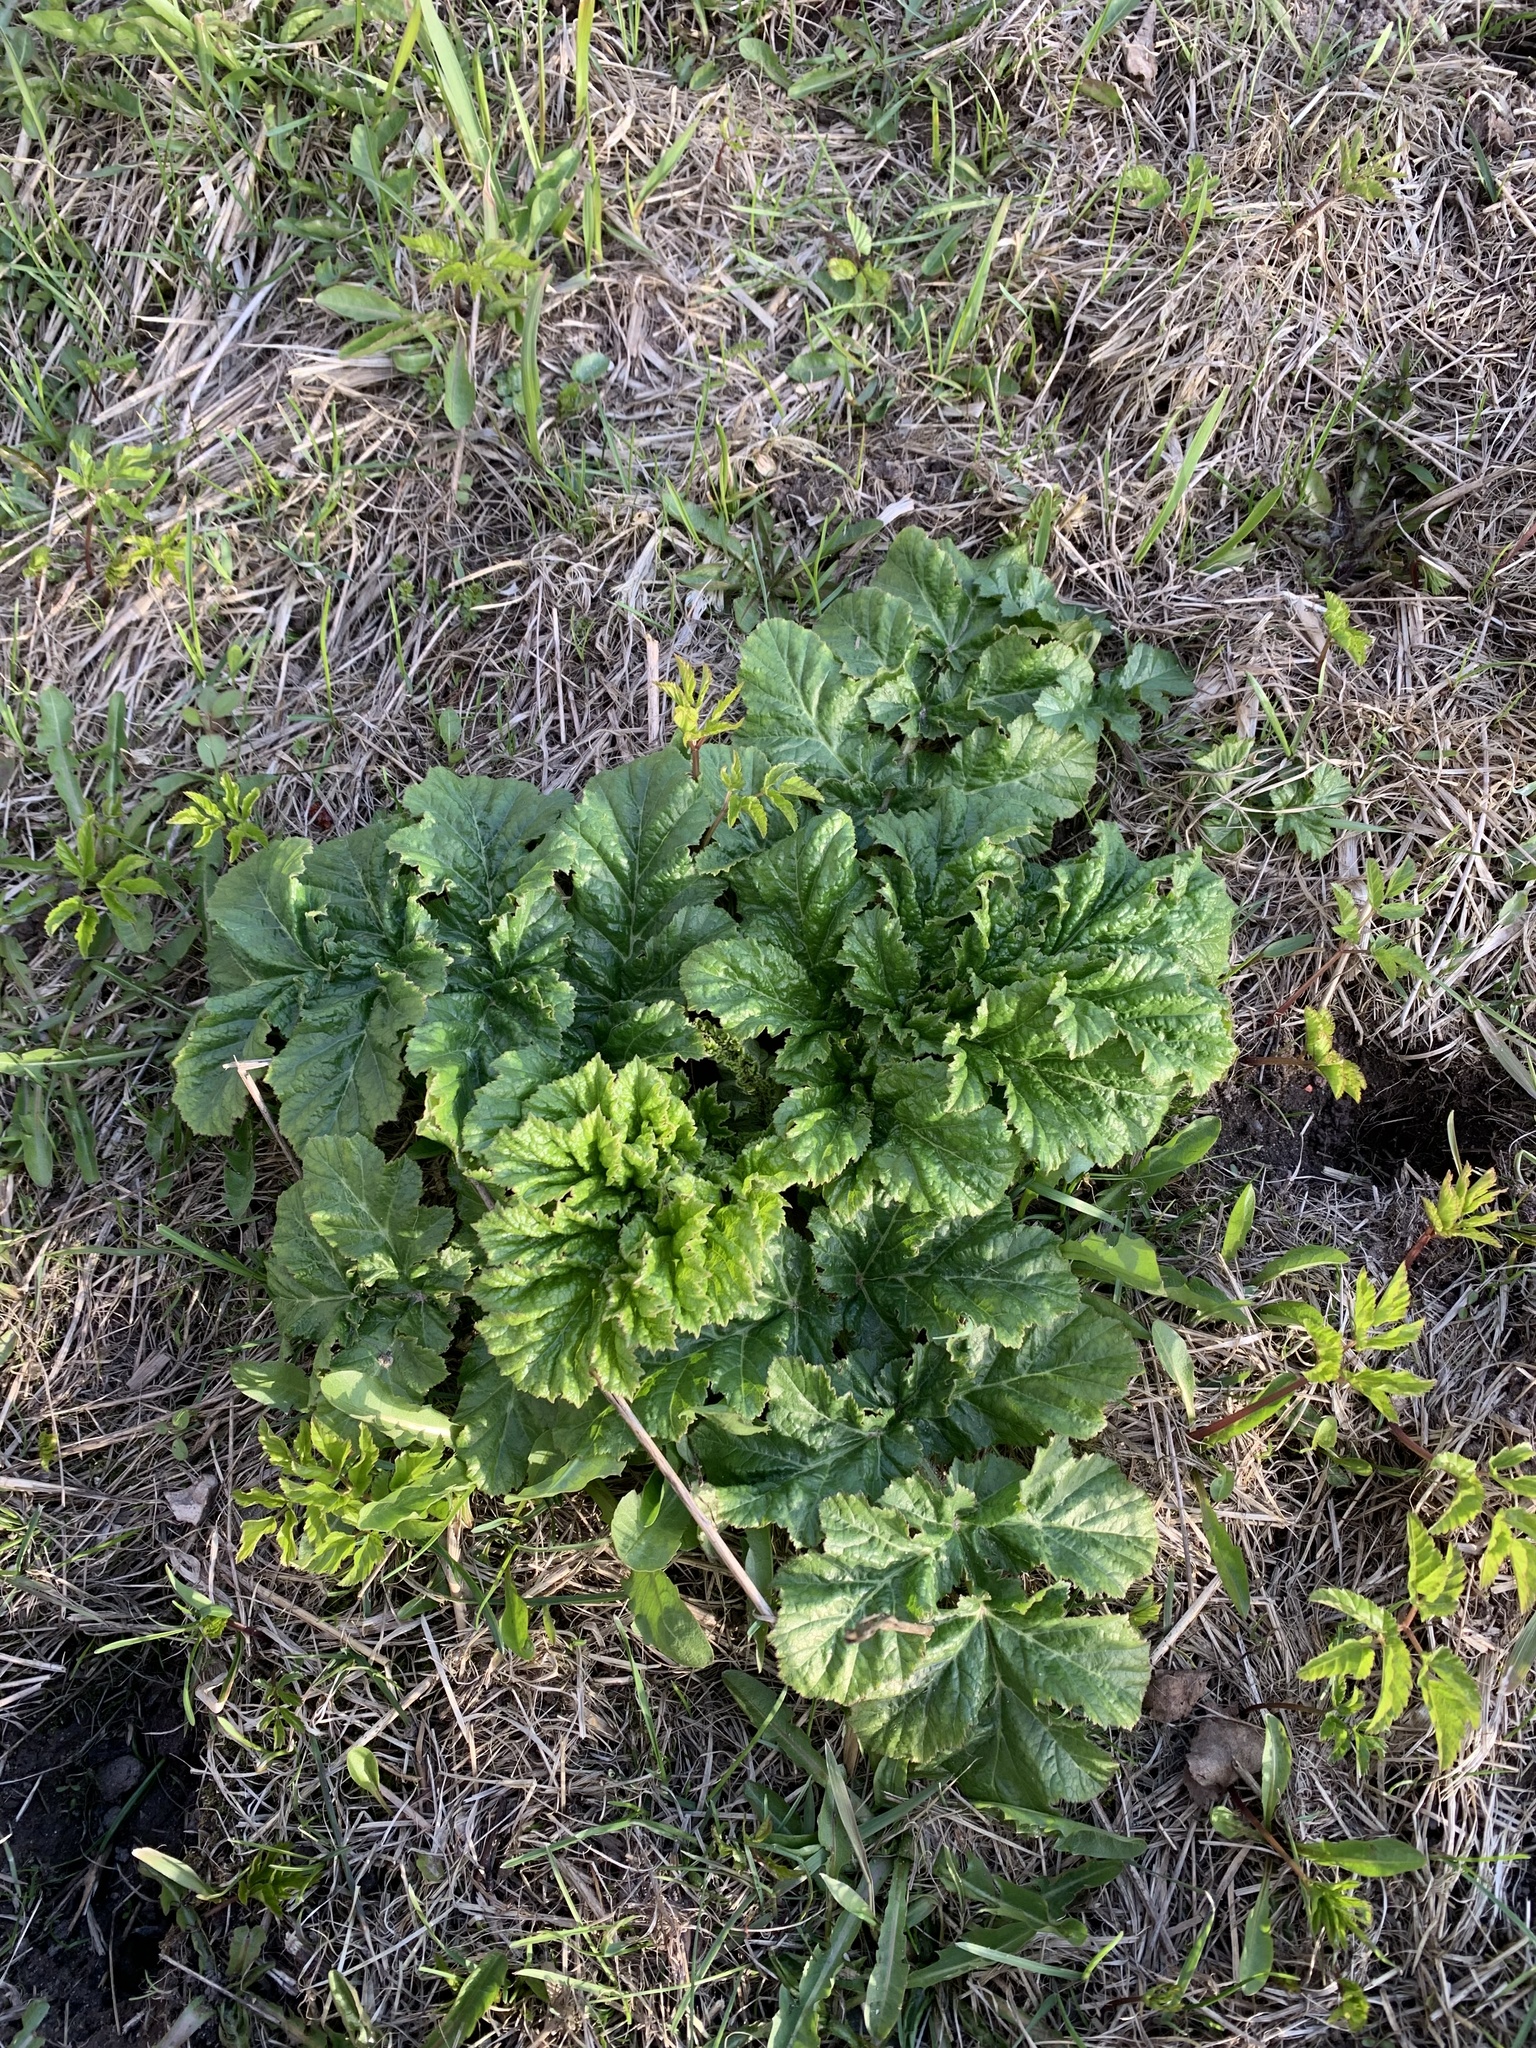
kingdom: Plantae
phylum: Tracheophyta
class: Magnoliopsida
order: Apiales
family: Apiaceae
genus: Heracleum
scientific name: Heracleum sosnowskyi
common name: Sosnowsky's hogweed
